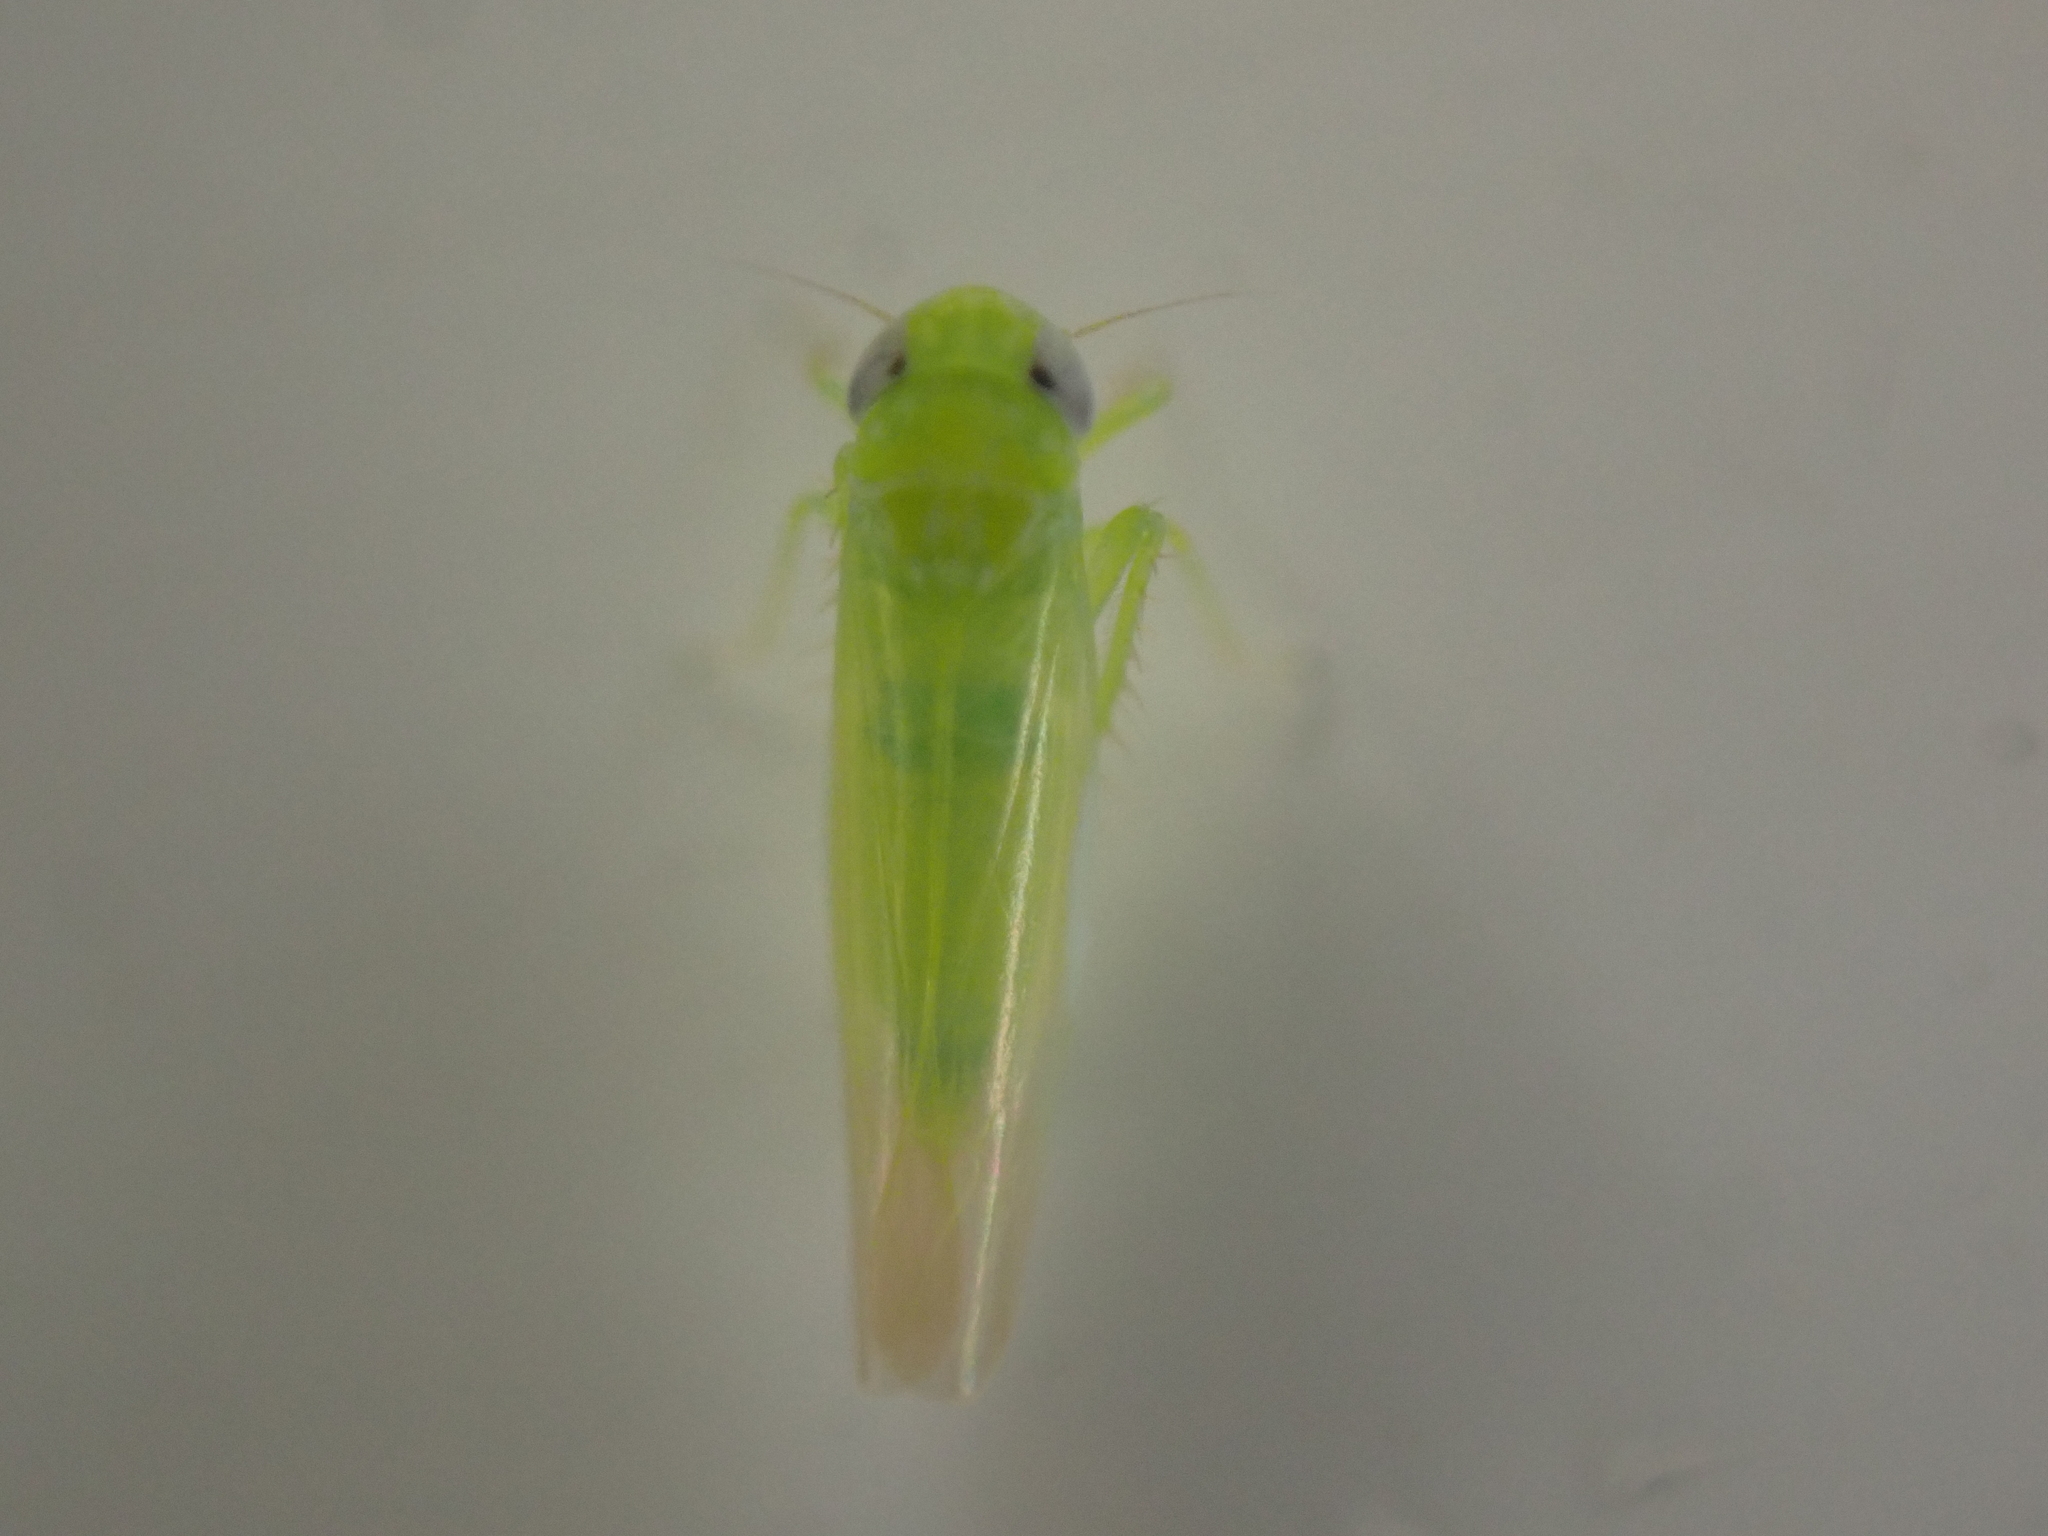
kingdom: Animalia
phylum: Arthropoda
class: Insecta
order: Hemiptera
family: Cicadellidae
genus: Empoasca
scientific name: Empoasca fabae
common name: Potato leafhopper
